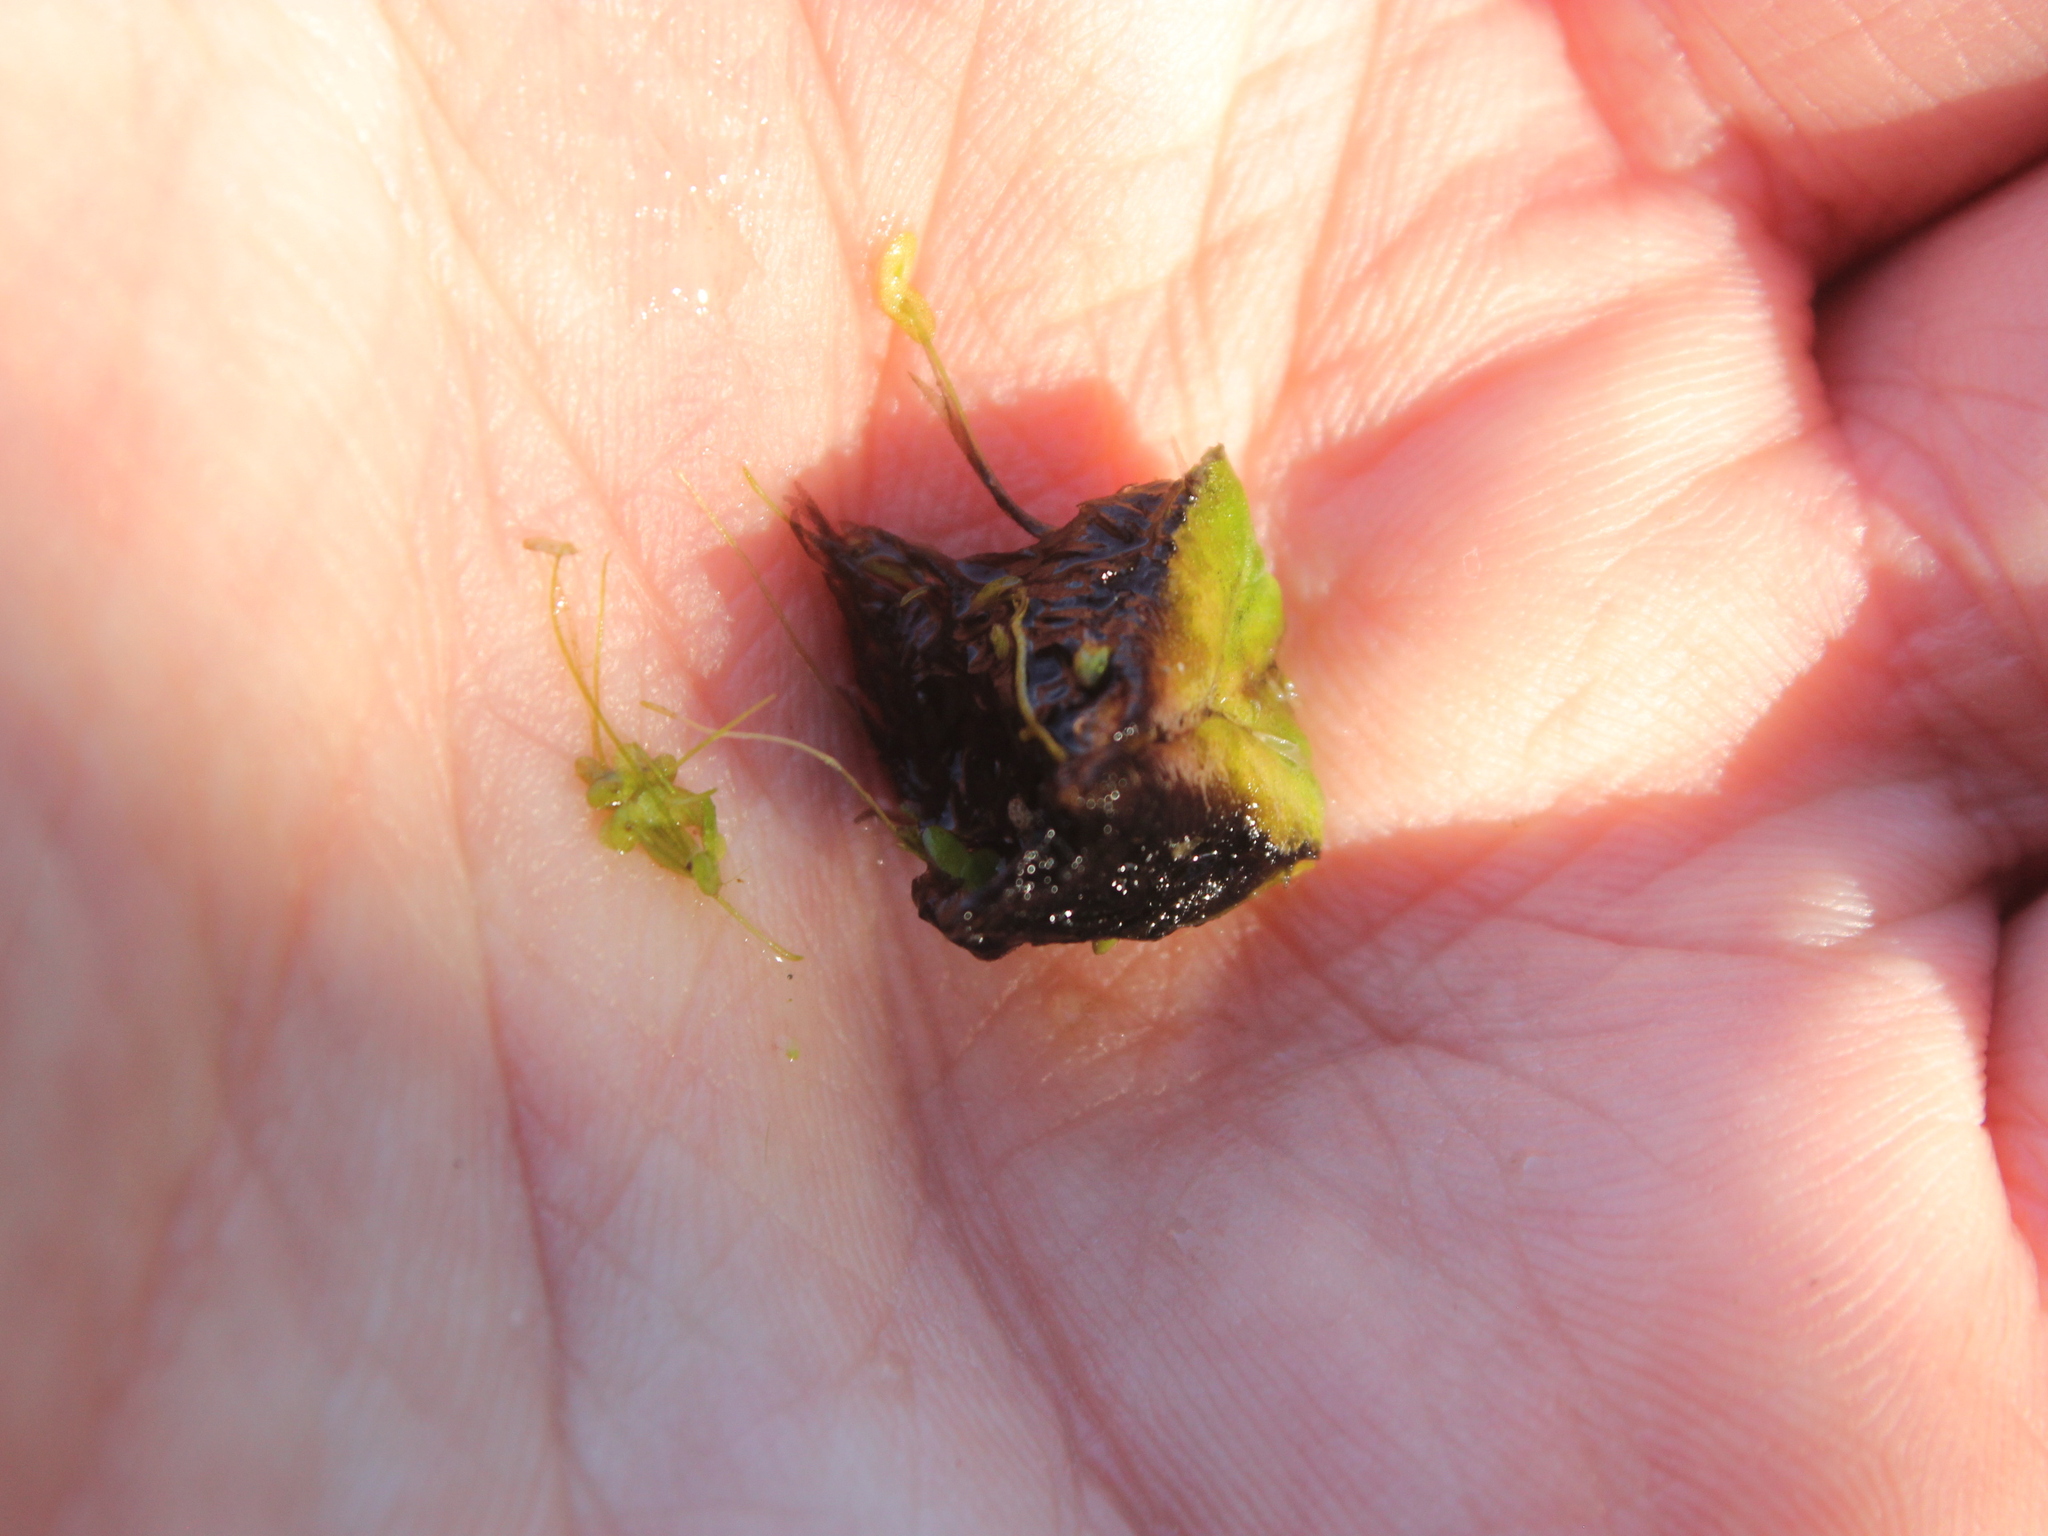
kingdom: Plantae
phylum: Marchantiophyta
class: Marchantiopsida
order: Marchantiales
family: Ricciaceae
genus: Ricciocarpos
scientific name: Ricciocarpos natans
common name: Purple-fringed liverwort
